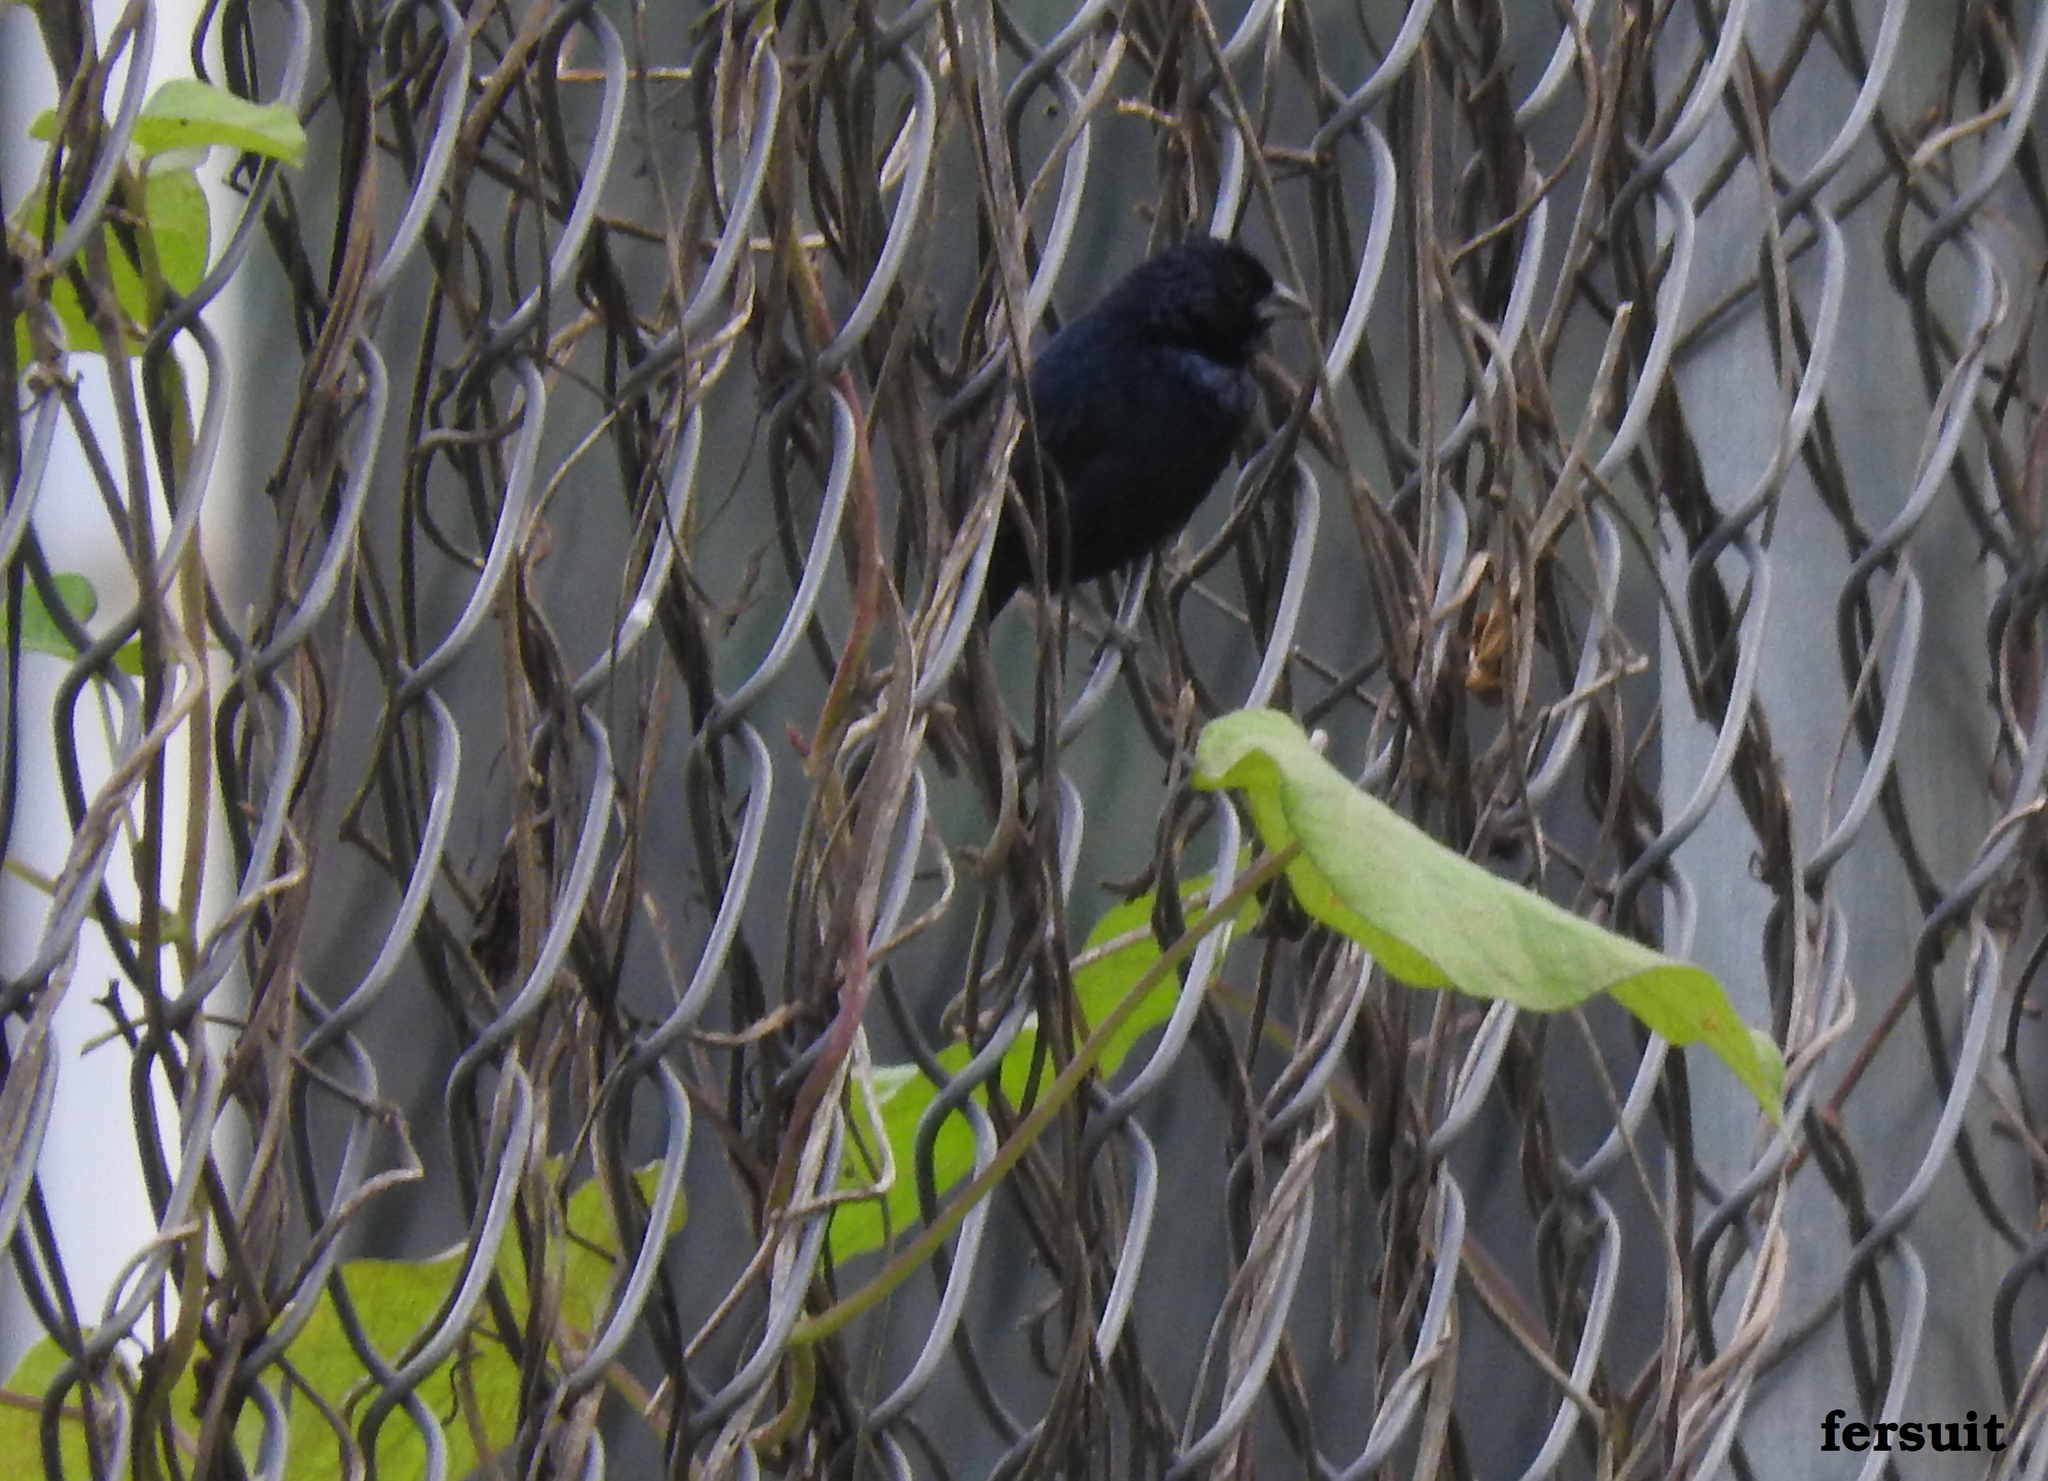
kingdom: Animalia
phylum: Chordata
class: Aves
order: Passeriformes
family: Thraupidae
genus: Volatinia
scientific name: Volatinia jacarina
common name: Blue-black grassquit
